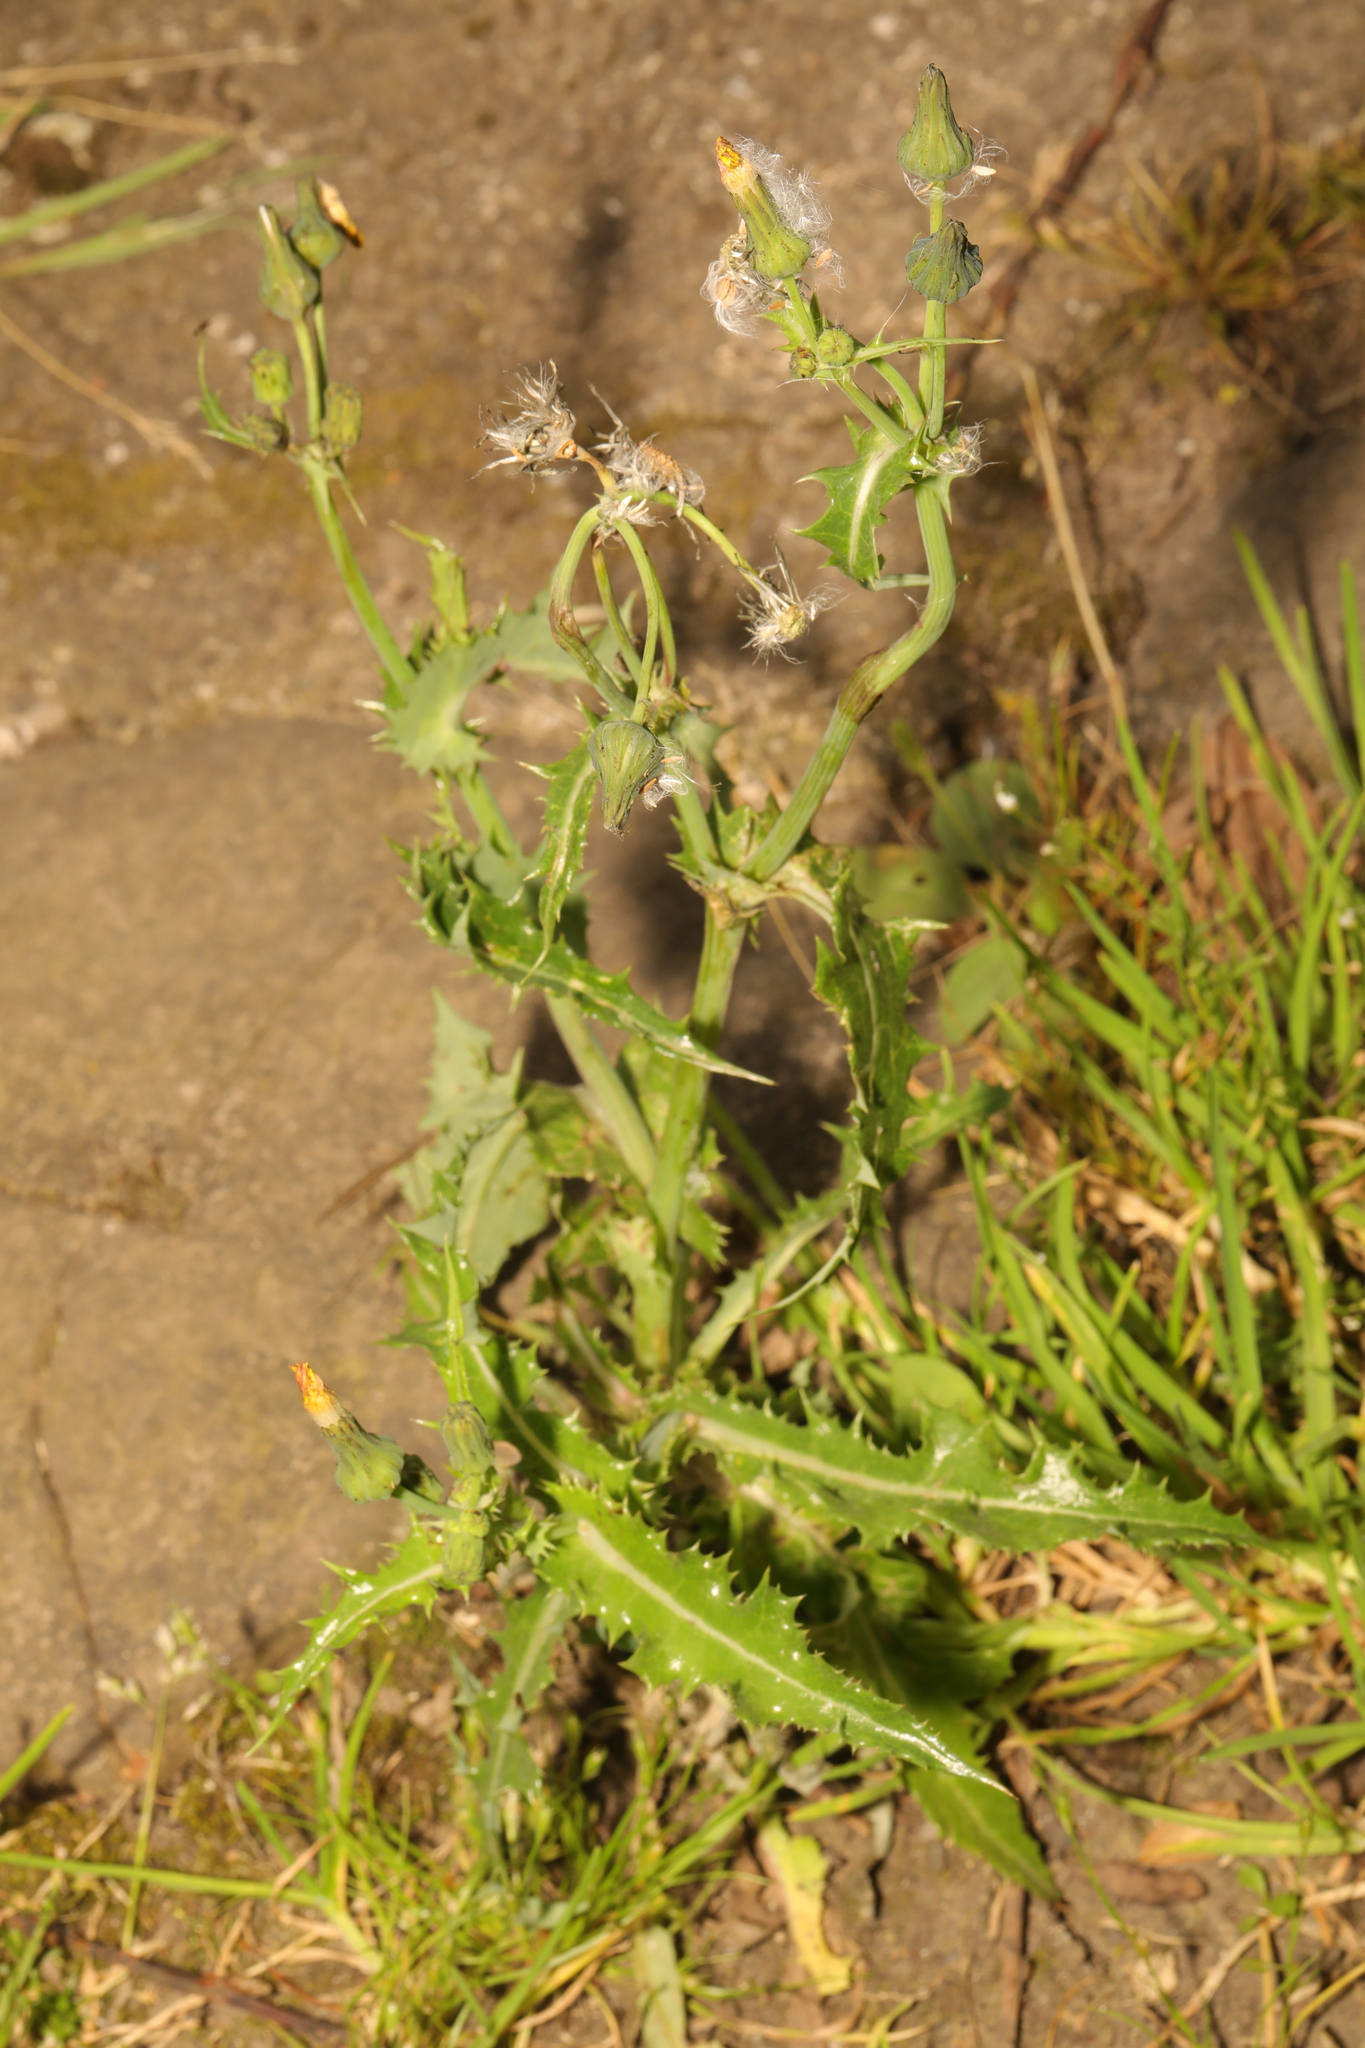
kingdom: Plantae
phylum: Tracheophyta
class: Magnoliopsida
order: Asterales
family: Asteraceae
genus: Sonchus
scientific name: Sonchus asper
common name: Prickly sow-thistle
